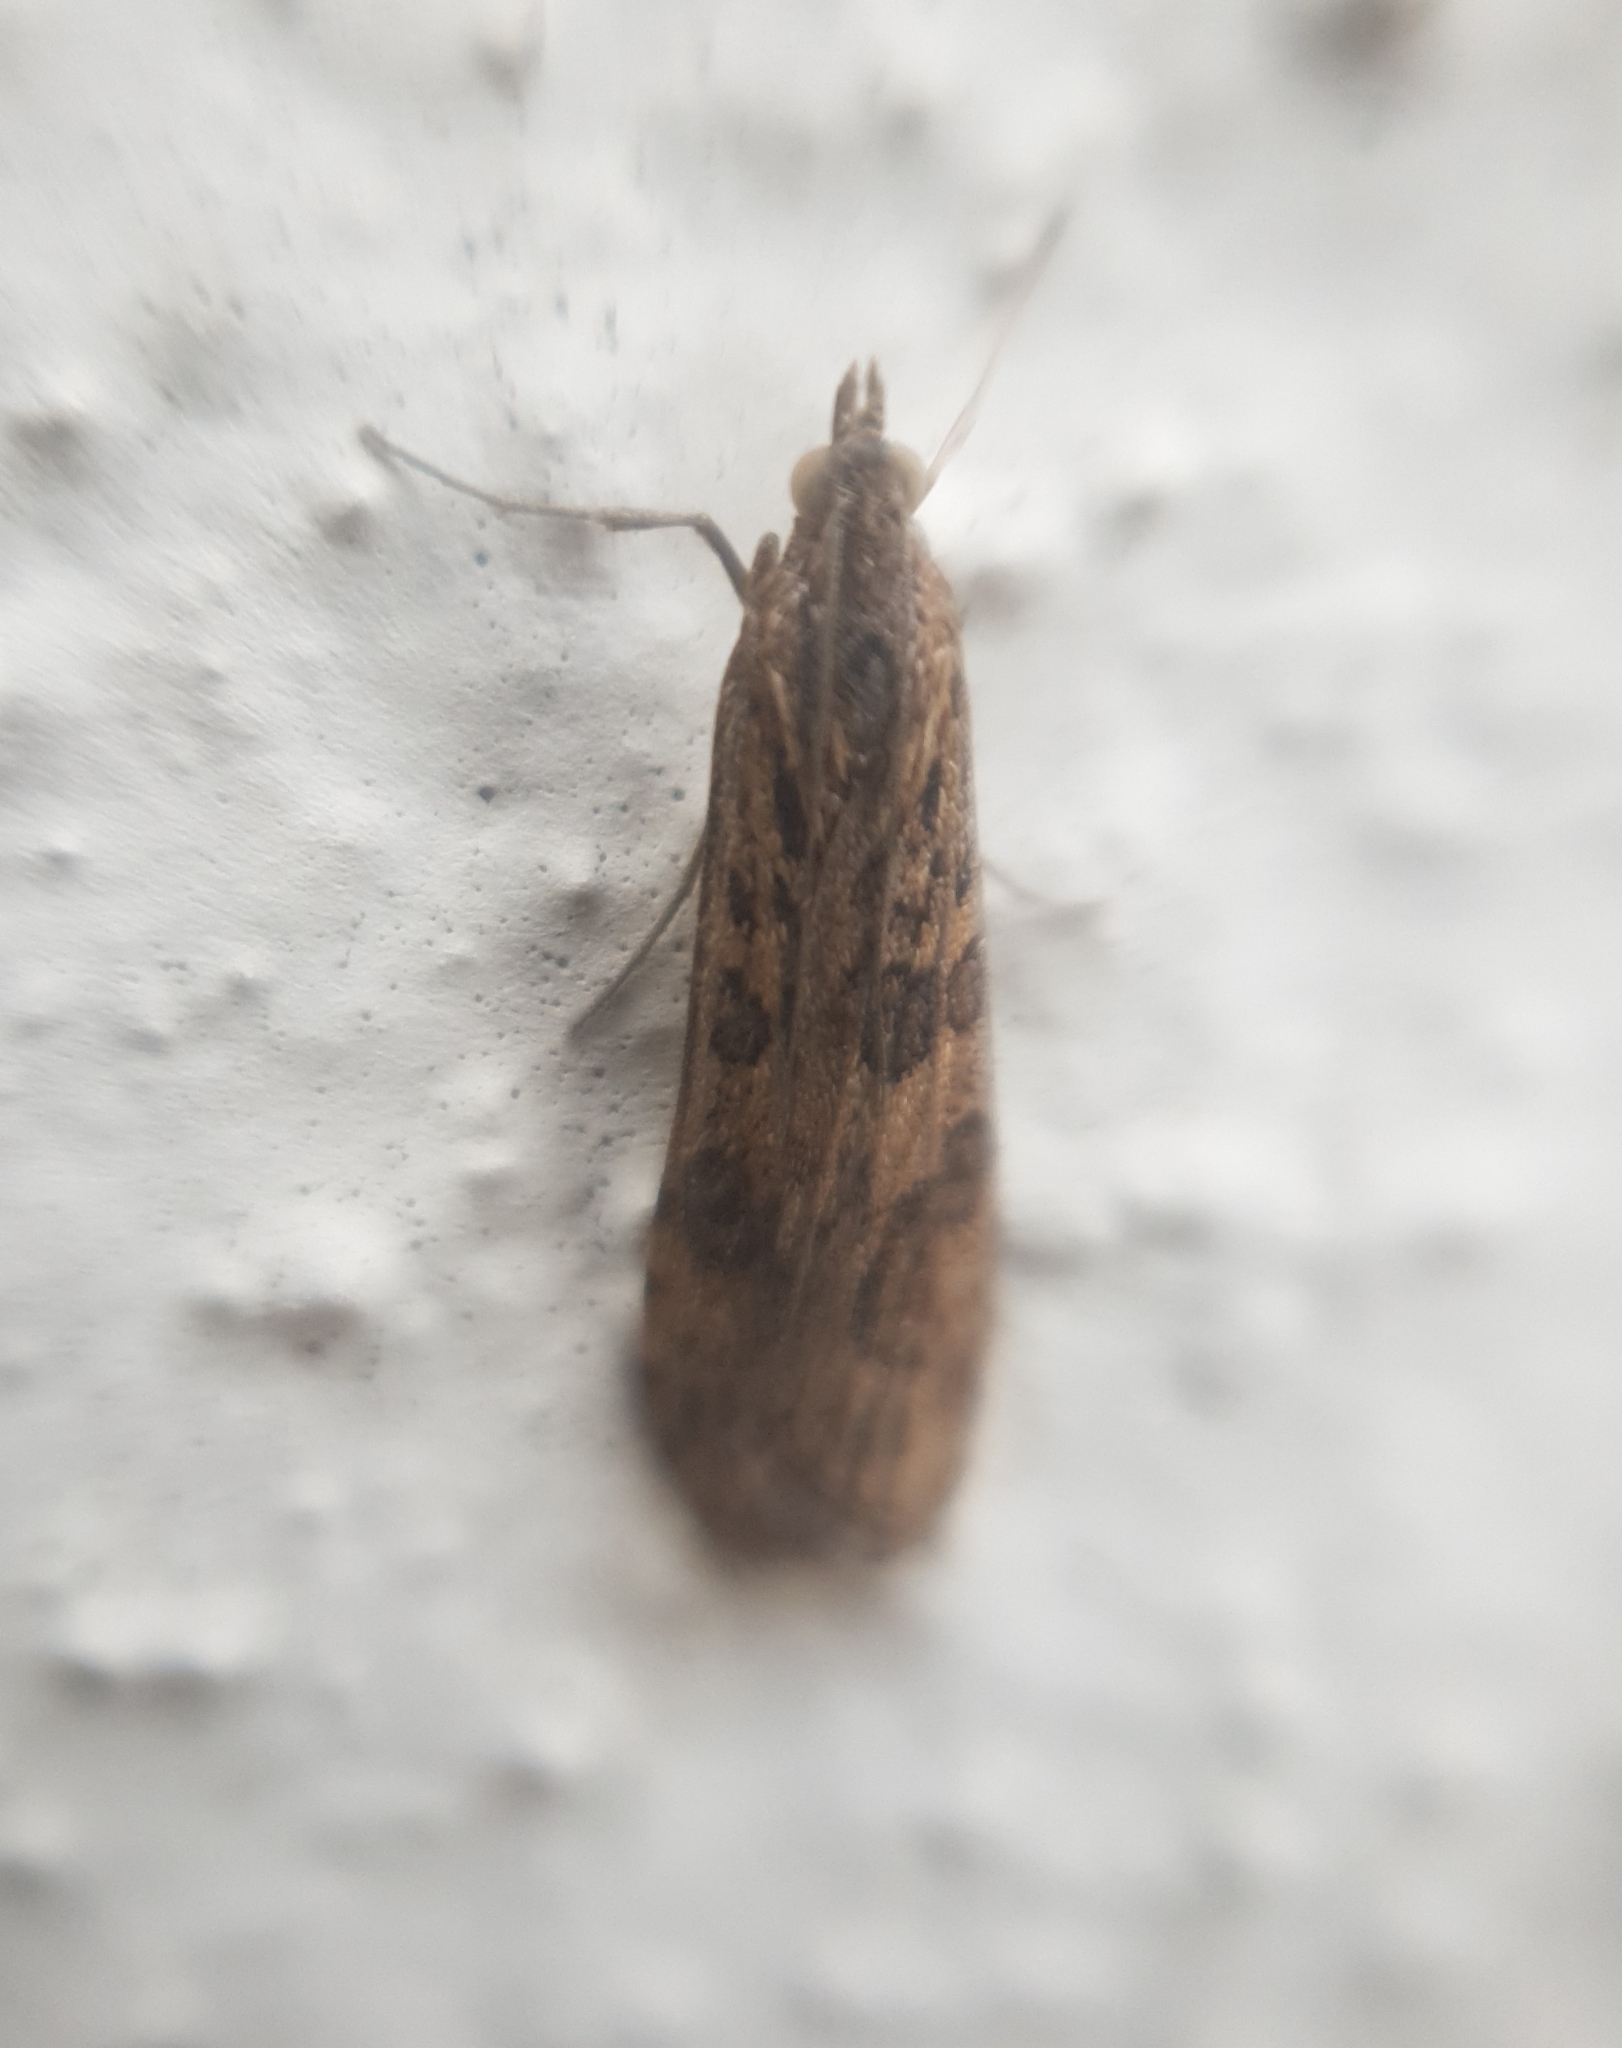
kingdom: Animalia
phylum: Arthropoda
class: Insecta
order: Lepidoptera
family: Crambidae
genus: Nomophila
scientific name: Nomophila noctuella
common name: Rush veneer
